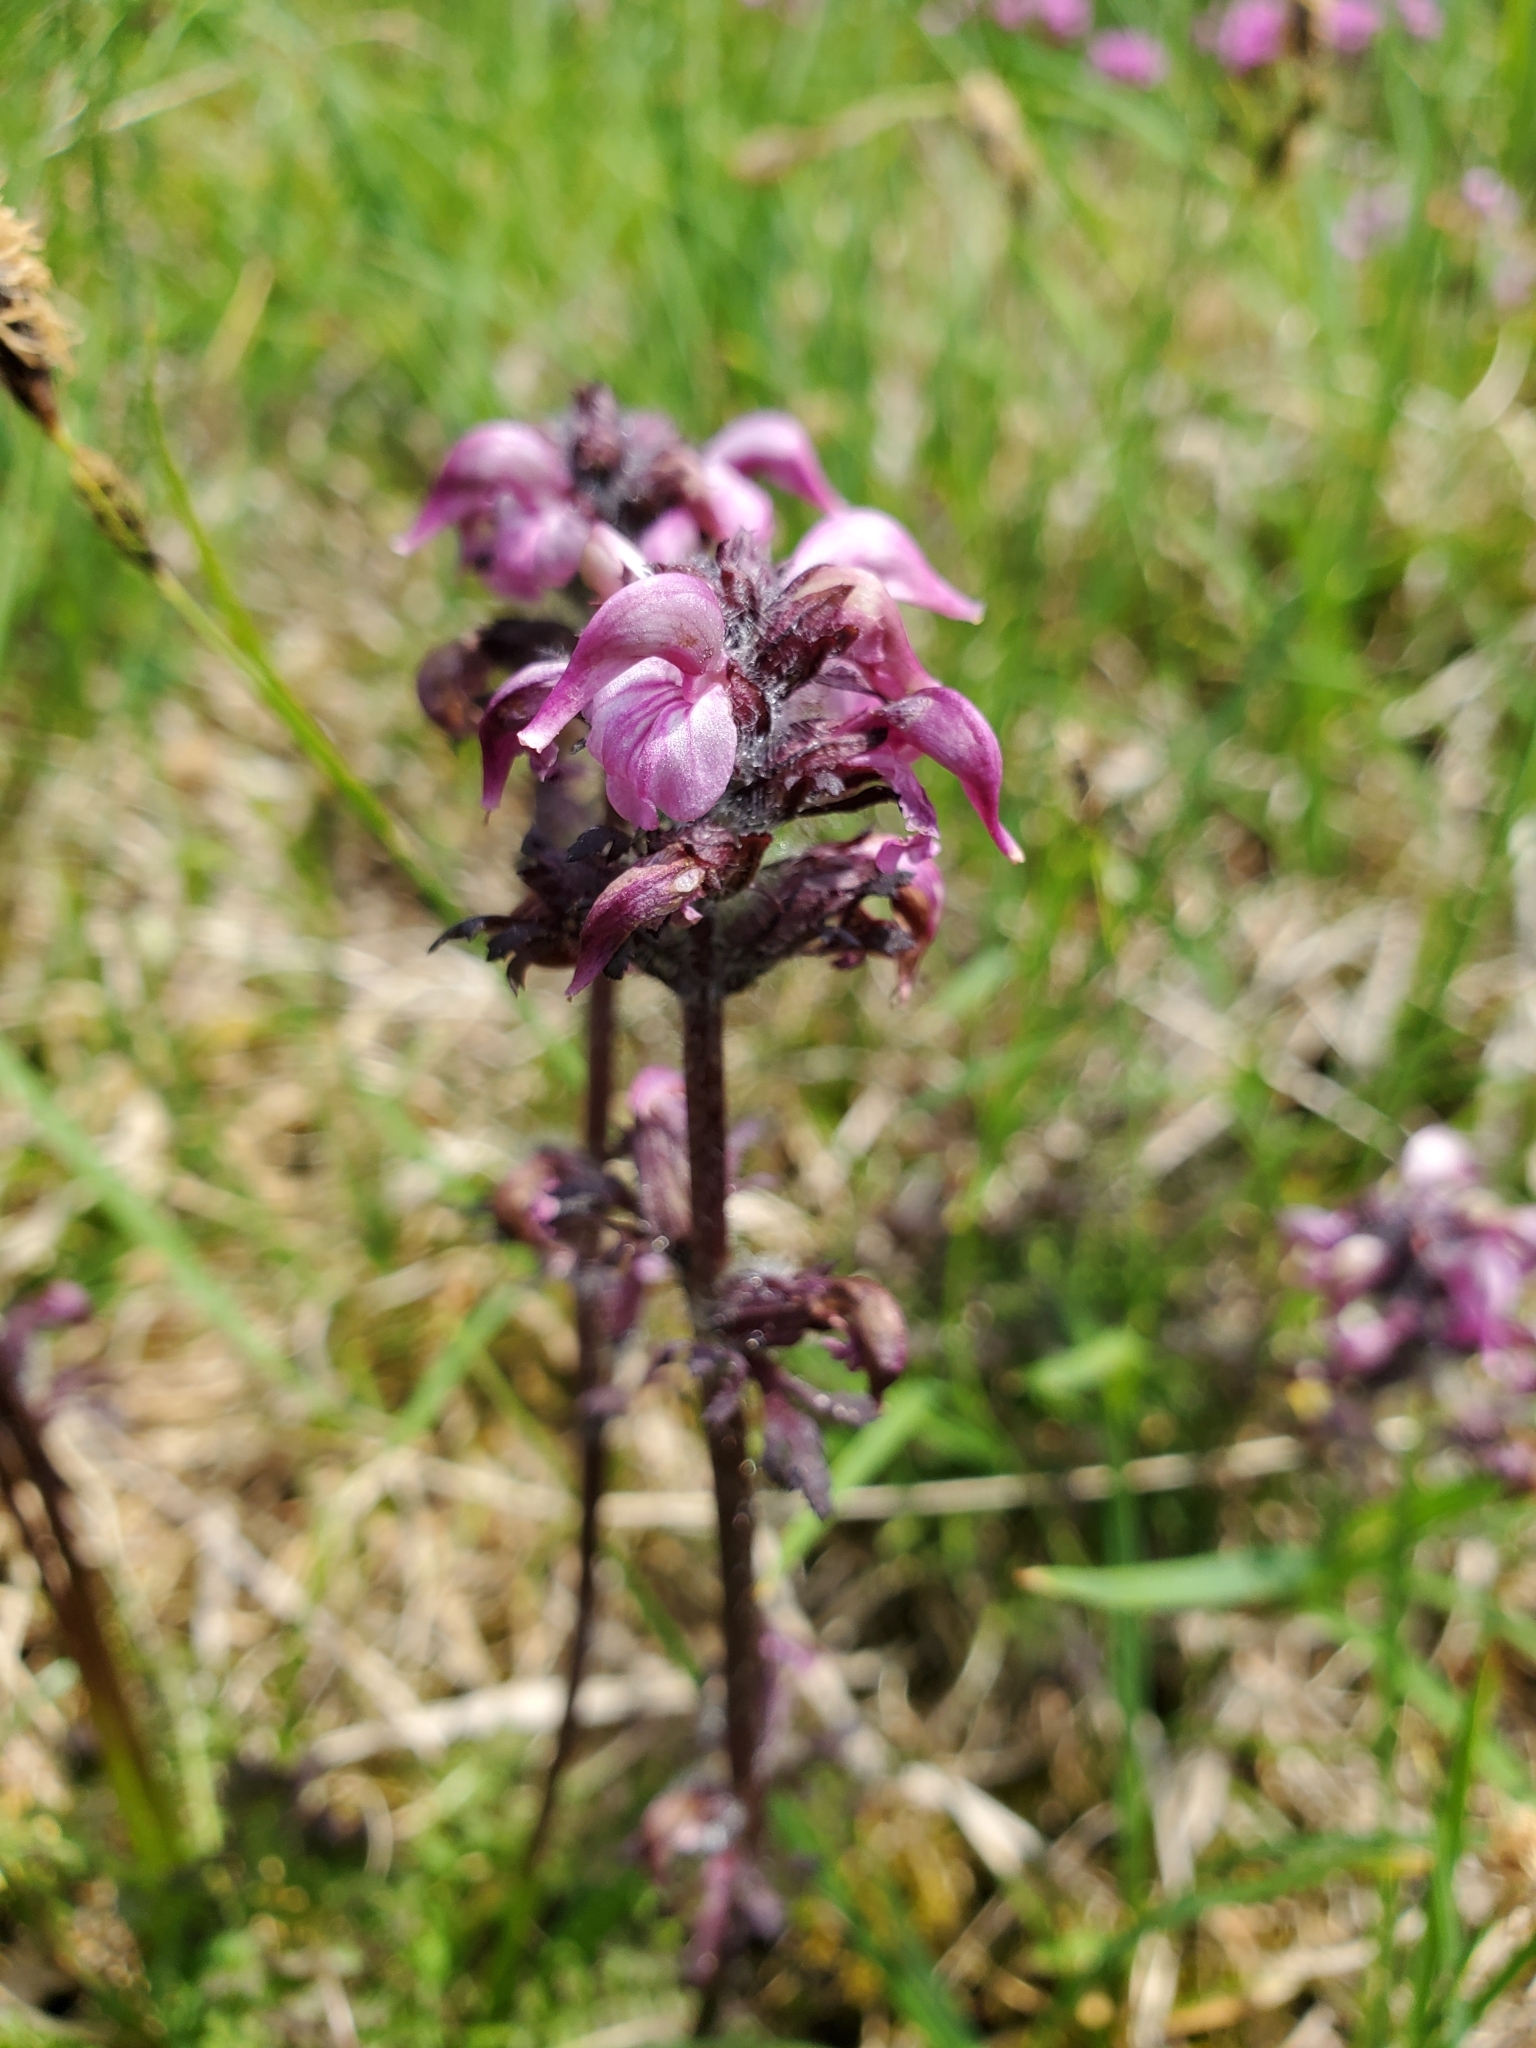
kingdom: Plantae
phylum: Tracheophyta
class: Magnoliopsida
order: Lamiales
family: Orobanchaceae
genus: Pedicularis
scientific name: Pedicularis ornithorhynchos
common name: Bird's-beak lousewort
